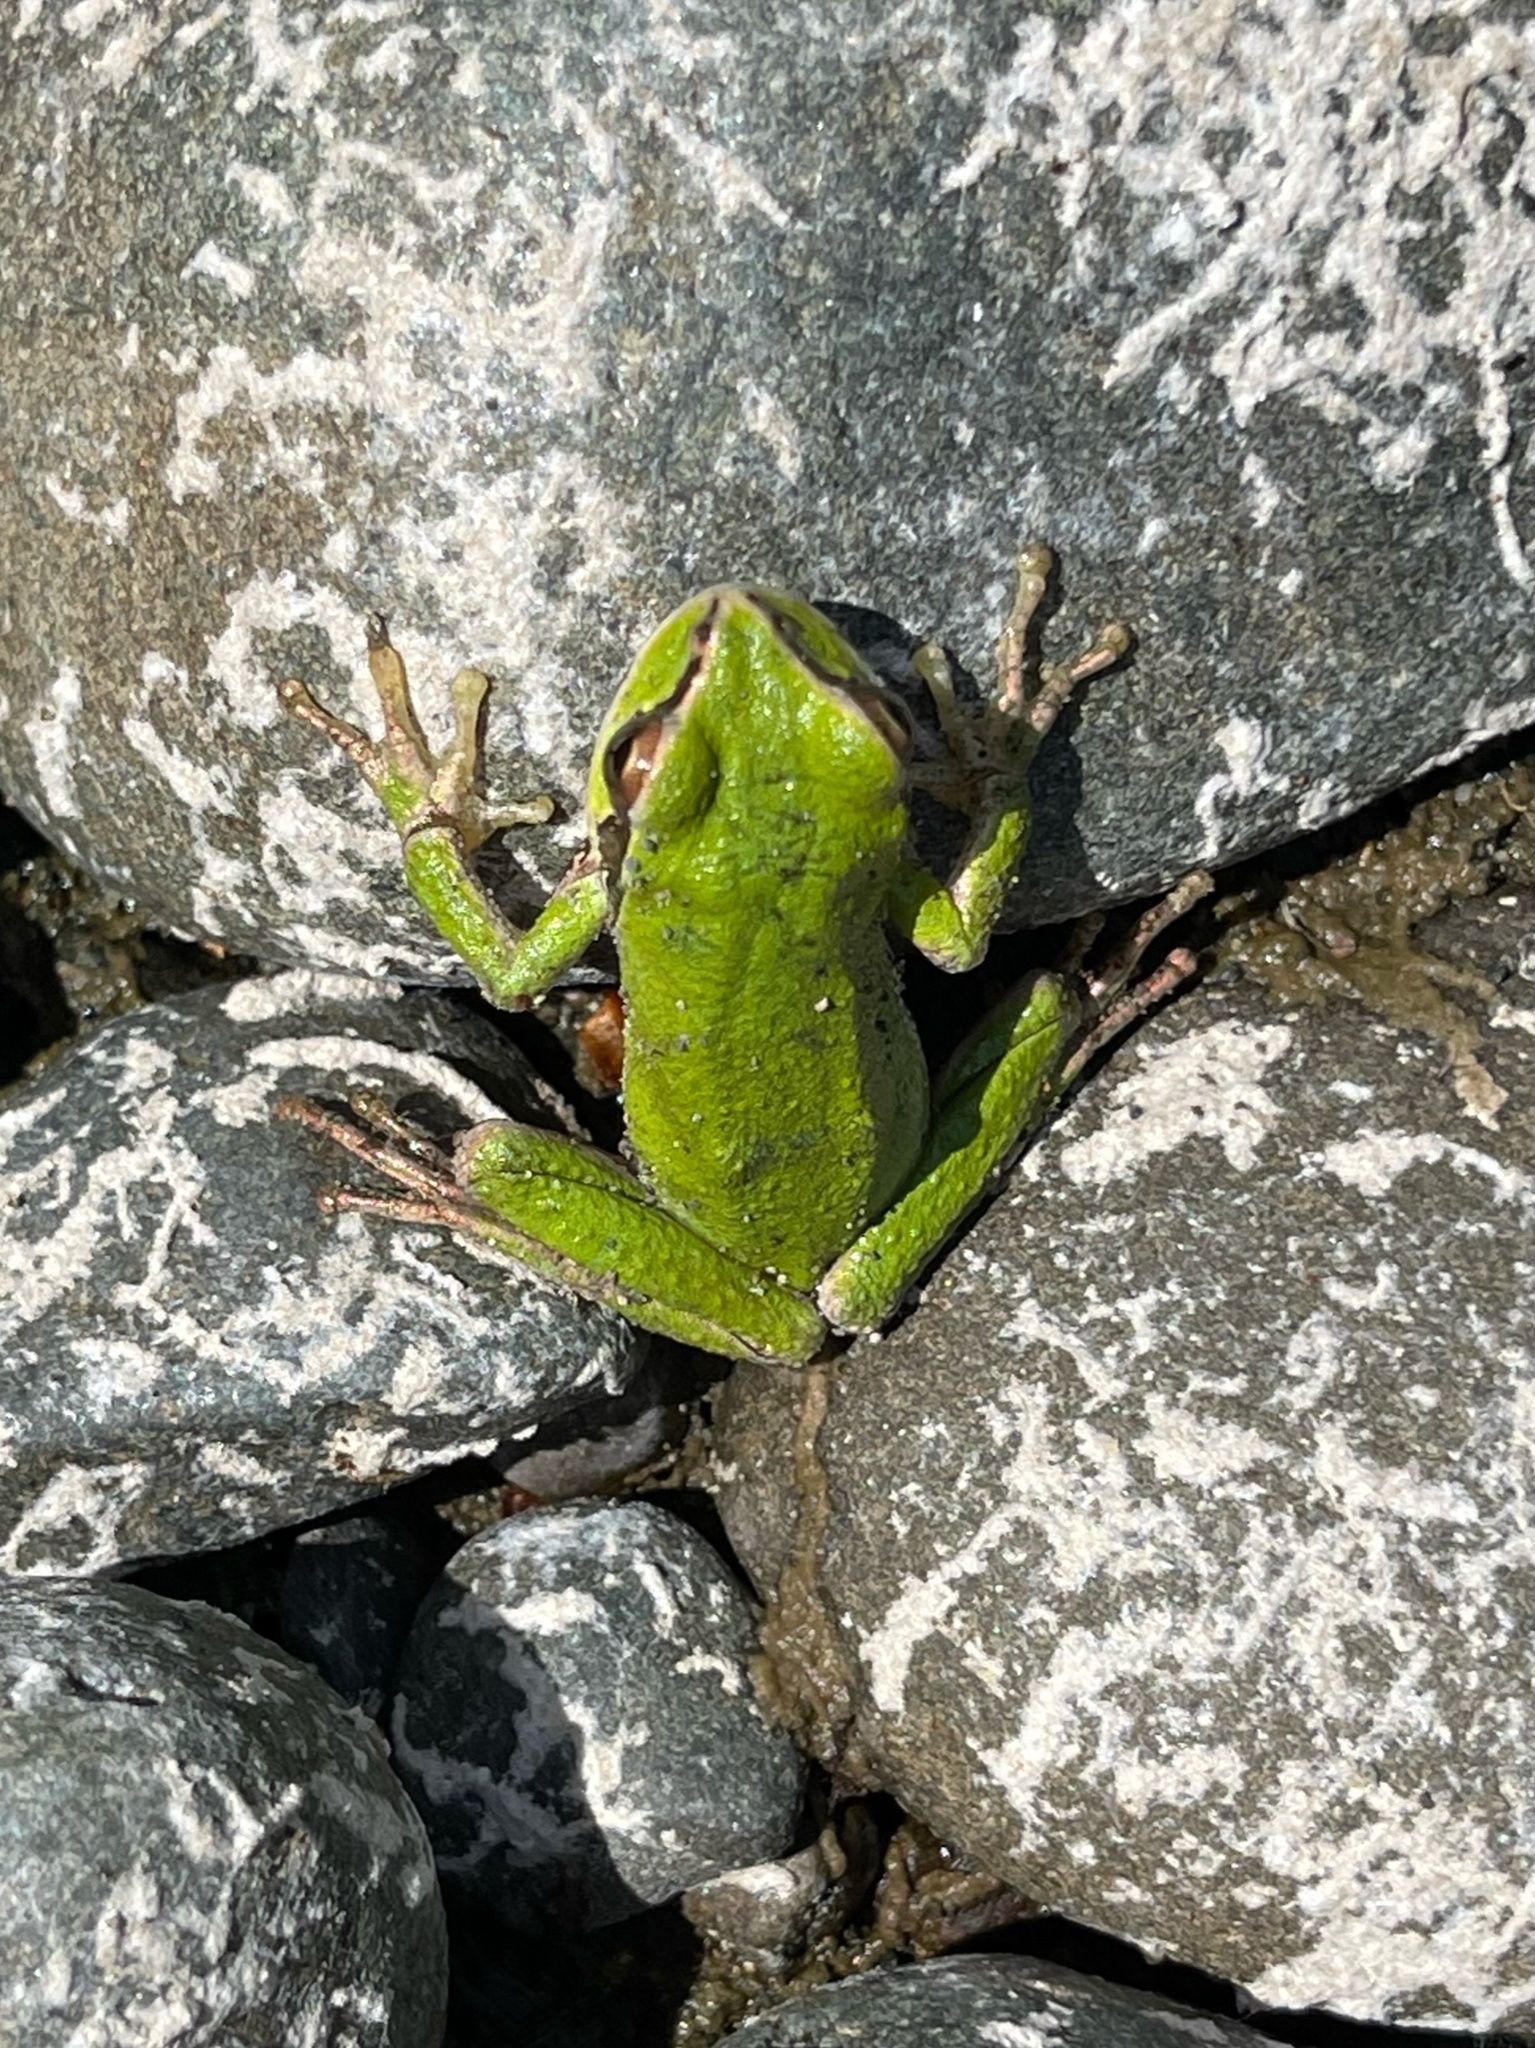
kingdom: Animalia
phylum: Chordata
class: Amphibia
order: Anura
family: Hylidae
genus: Pseudacris
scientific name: Pseudacris regilla
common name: Pacific chorus frog
